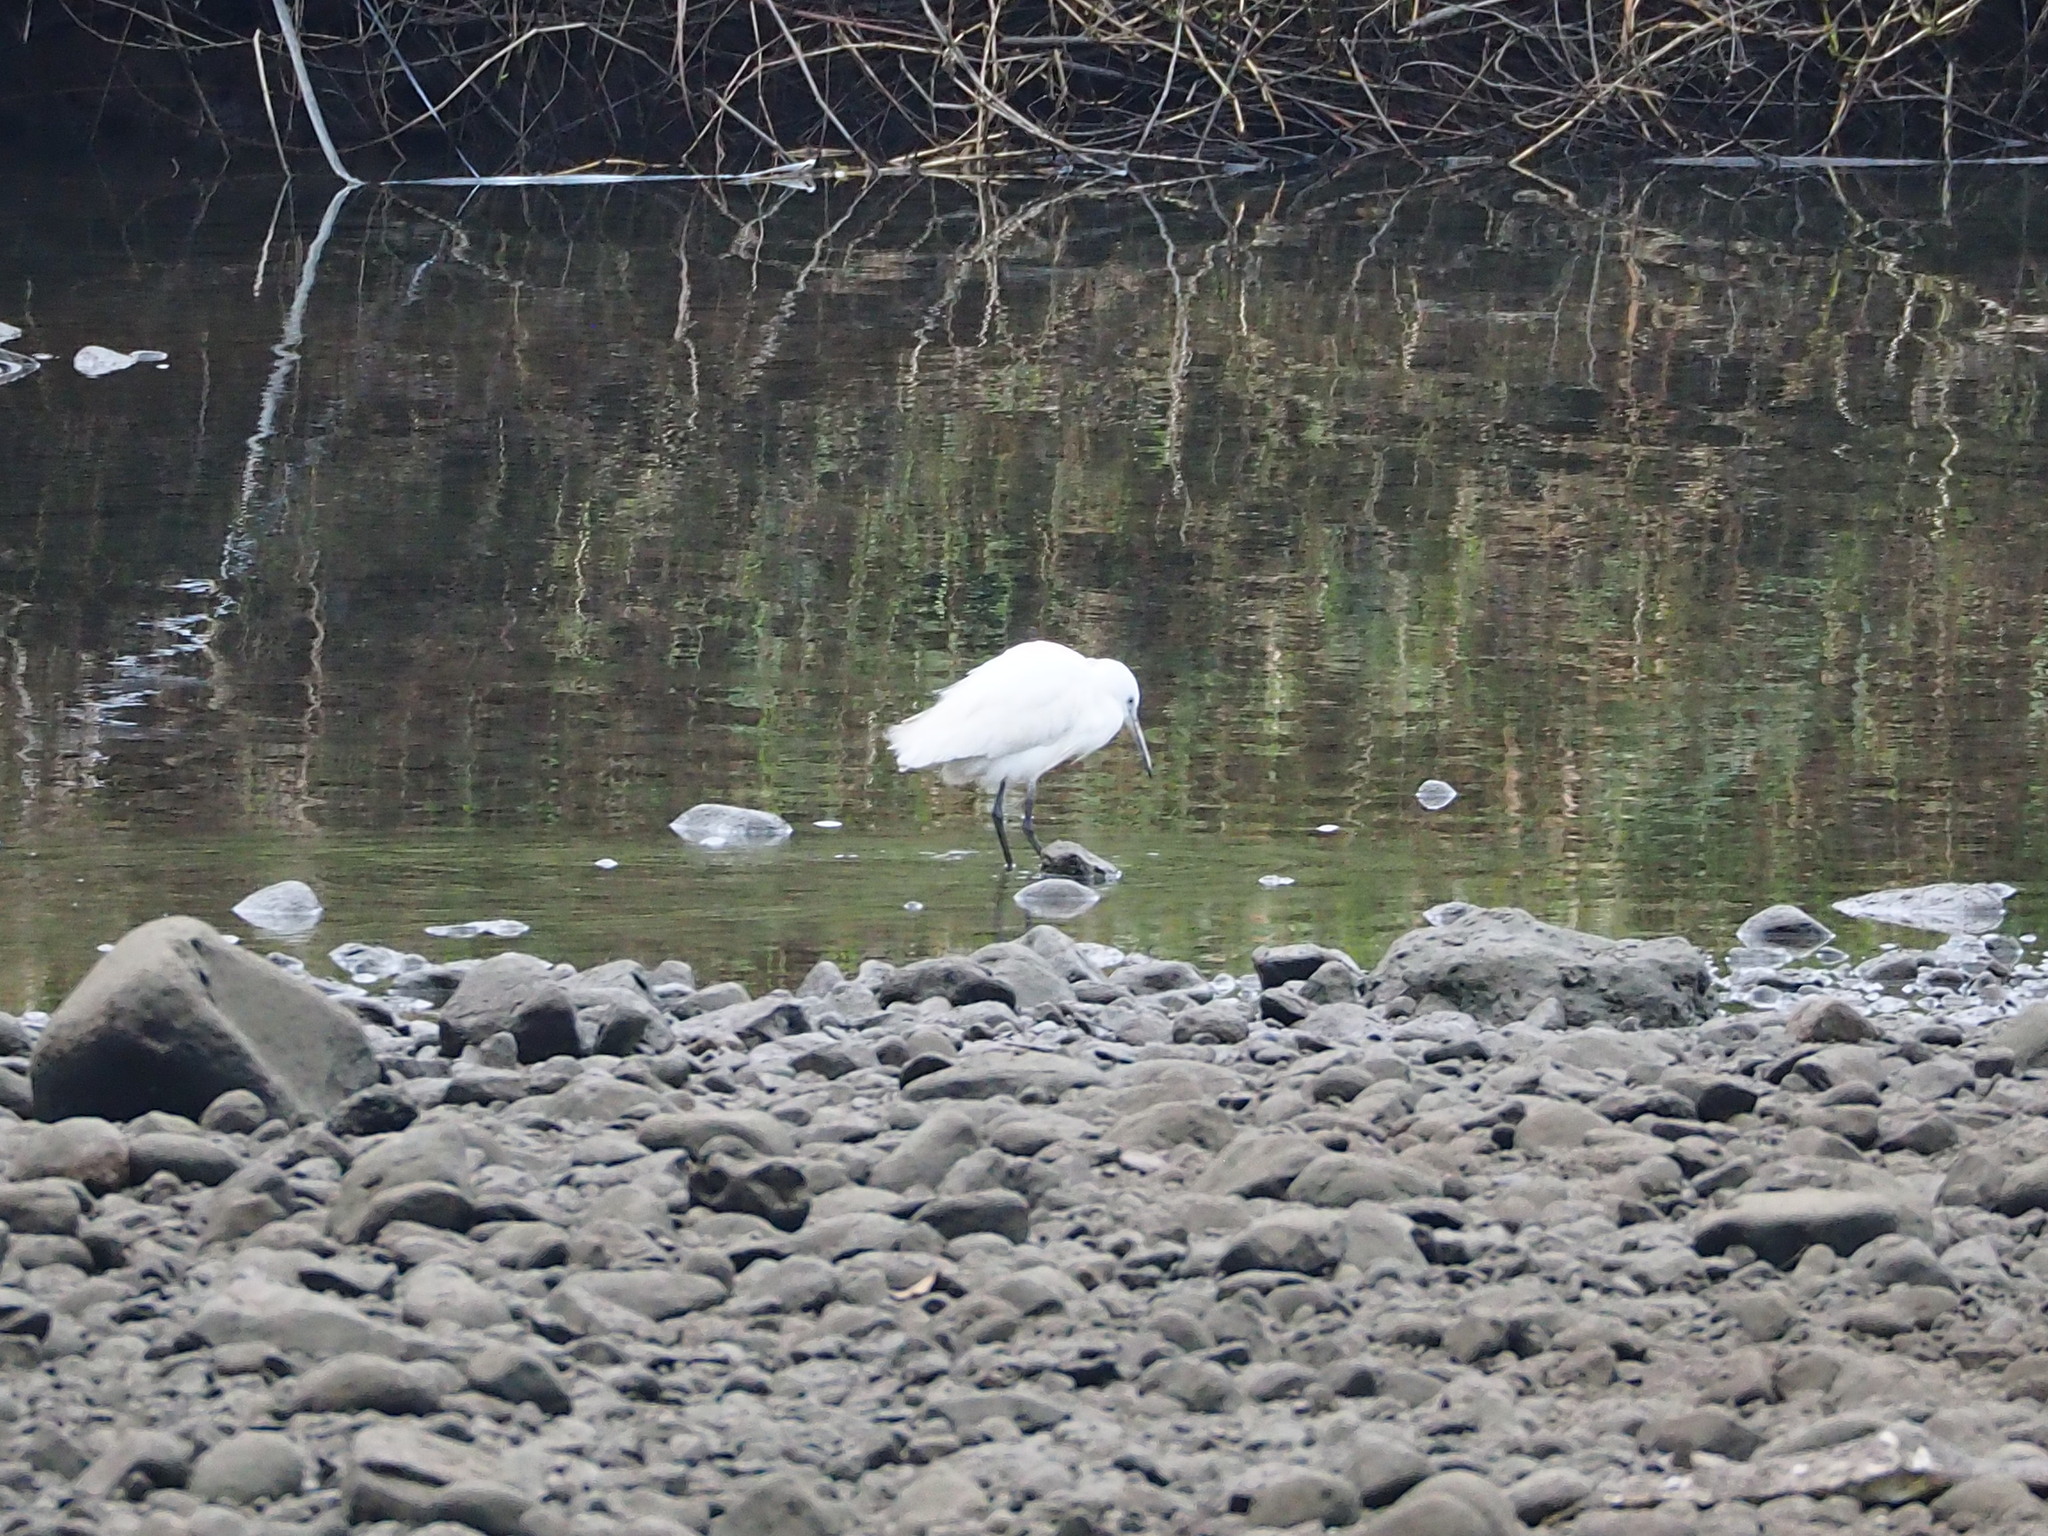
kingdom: Animalia
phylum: Chordata
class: Aves
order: Pelecaniformes
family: Ardeidae
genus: Egretta
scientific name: Egretta garzetta
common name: Little egret
